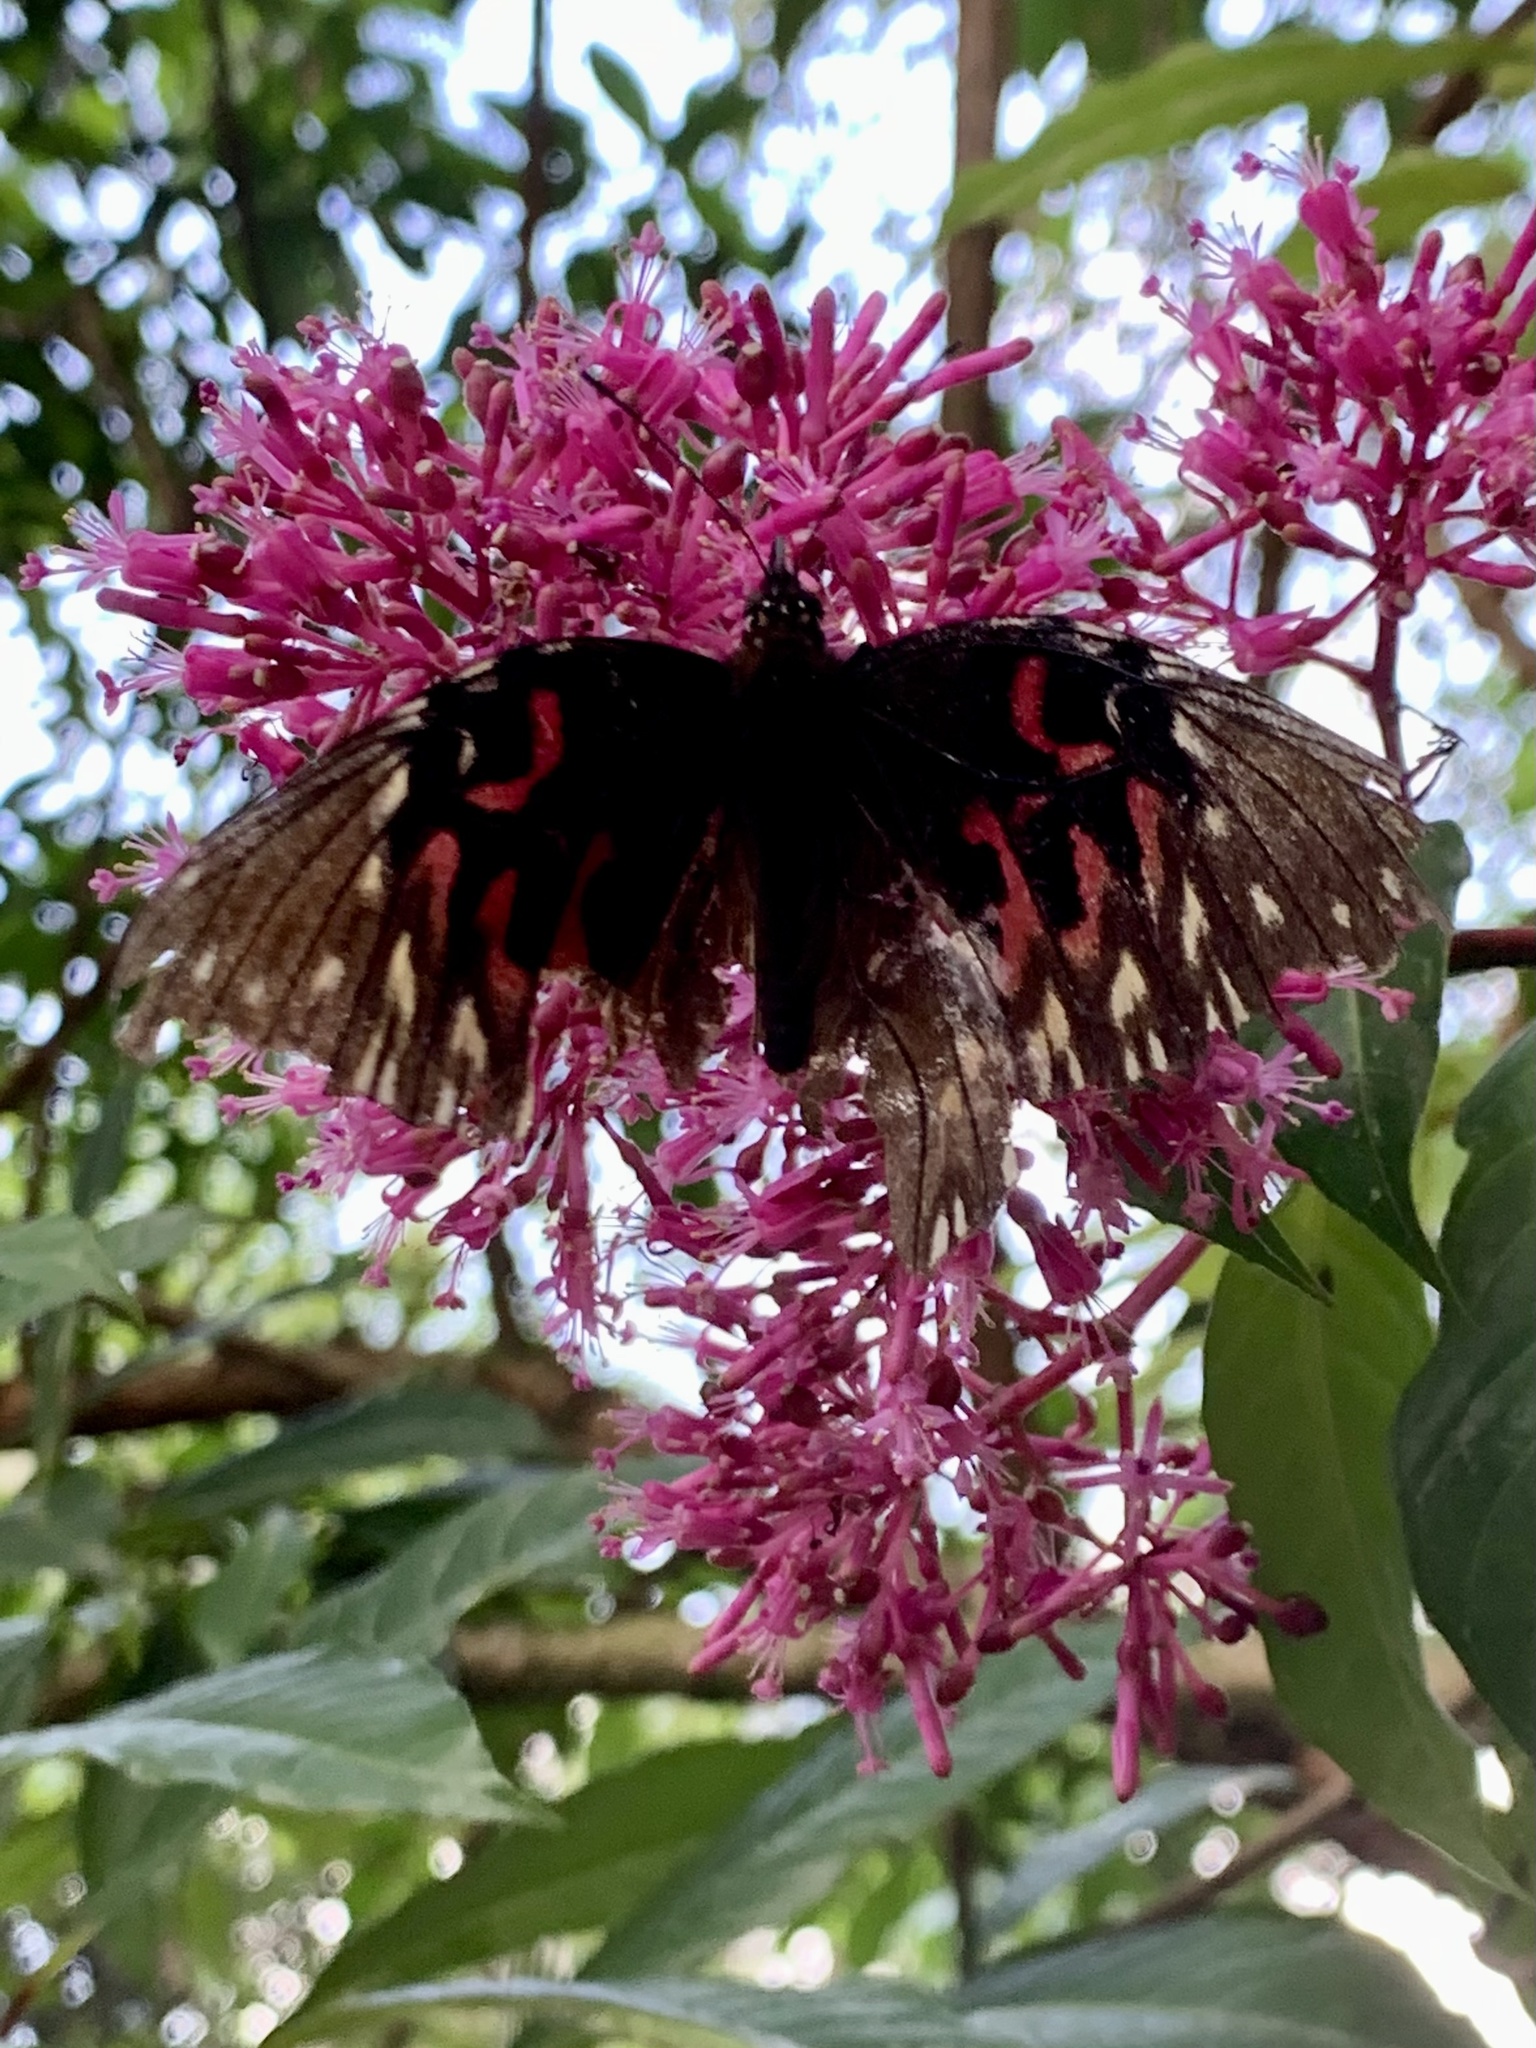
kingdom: Animalia
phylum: Arthropoda
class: Insecta
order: Lepidoptera
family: Nymphalidae
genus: Anetia
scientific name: Anetia thirza
